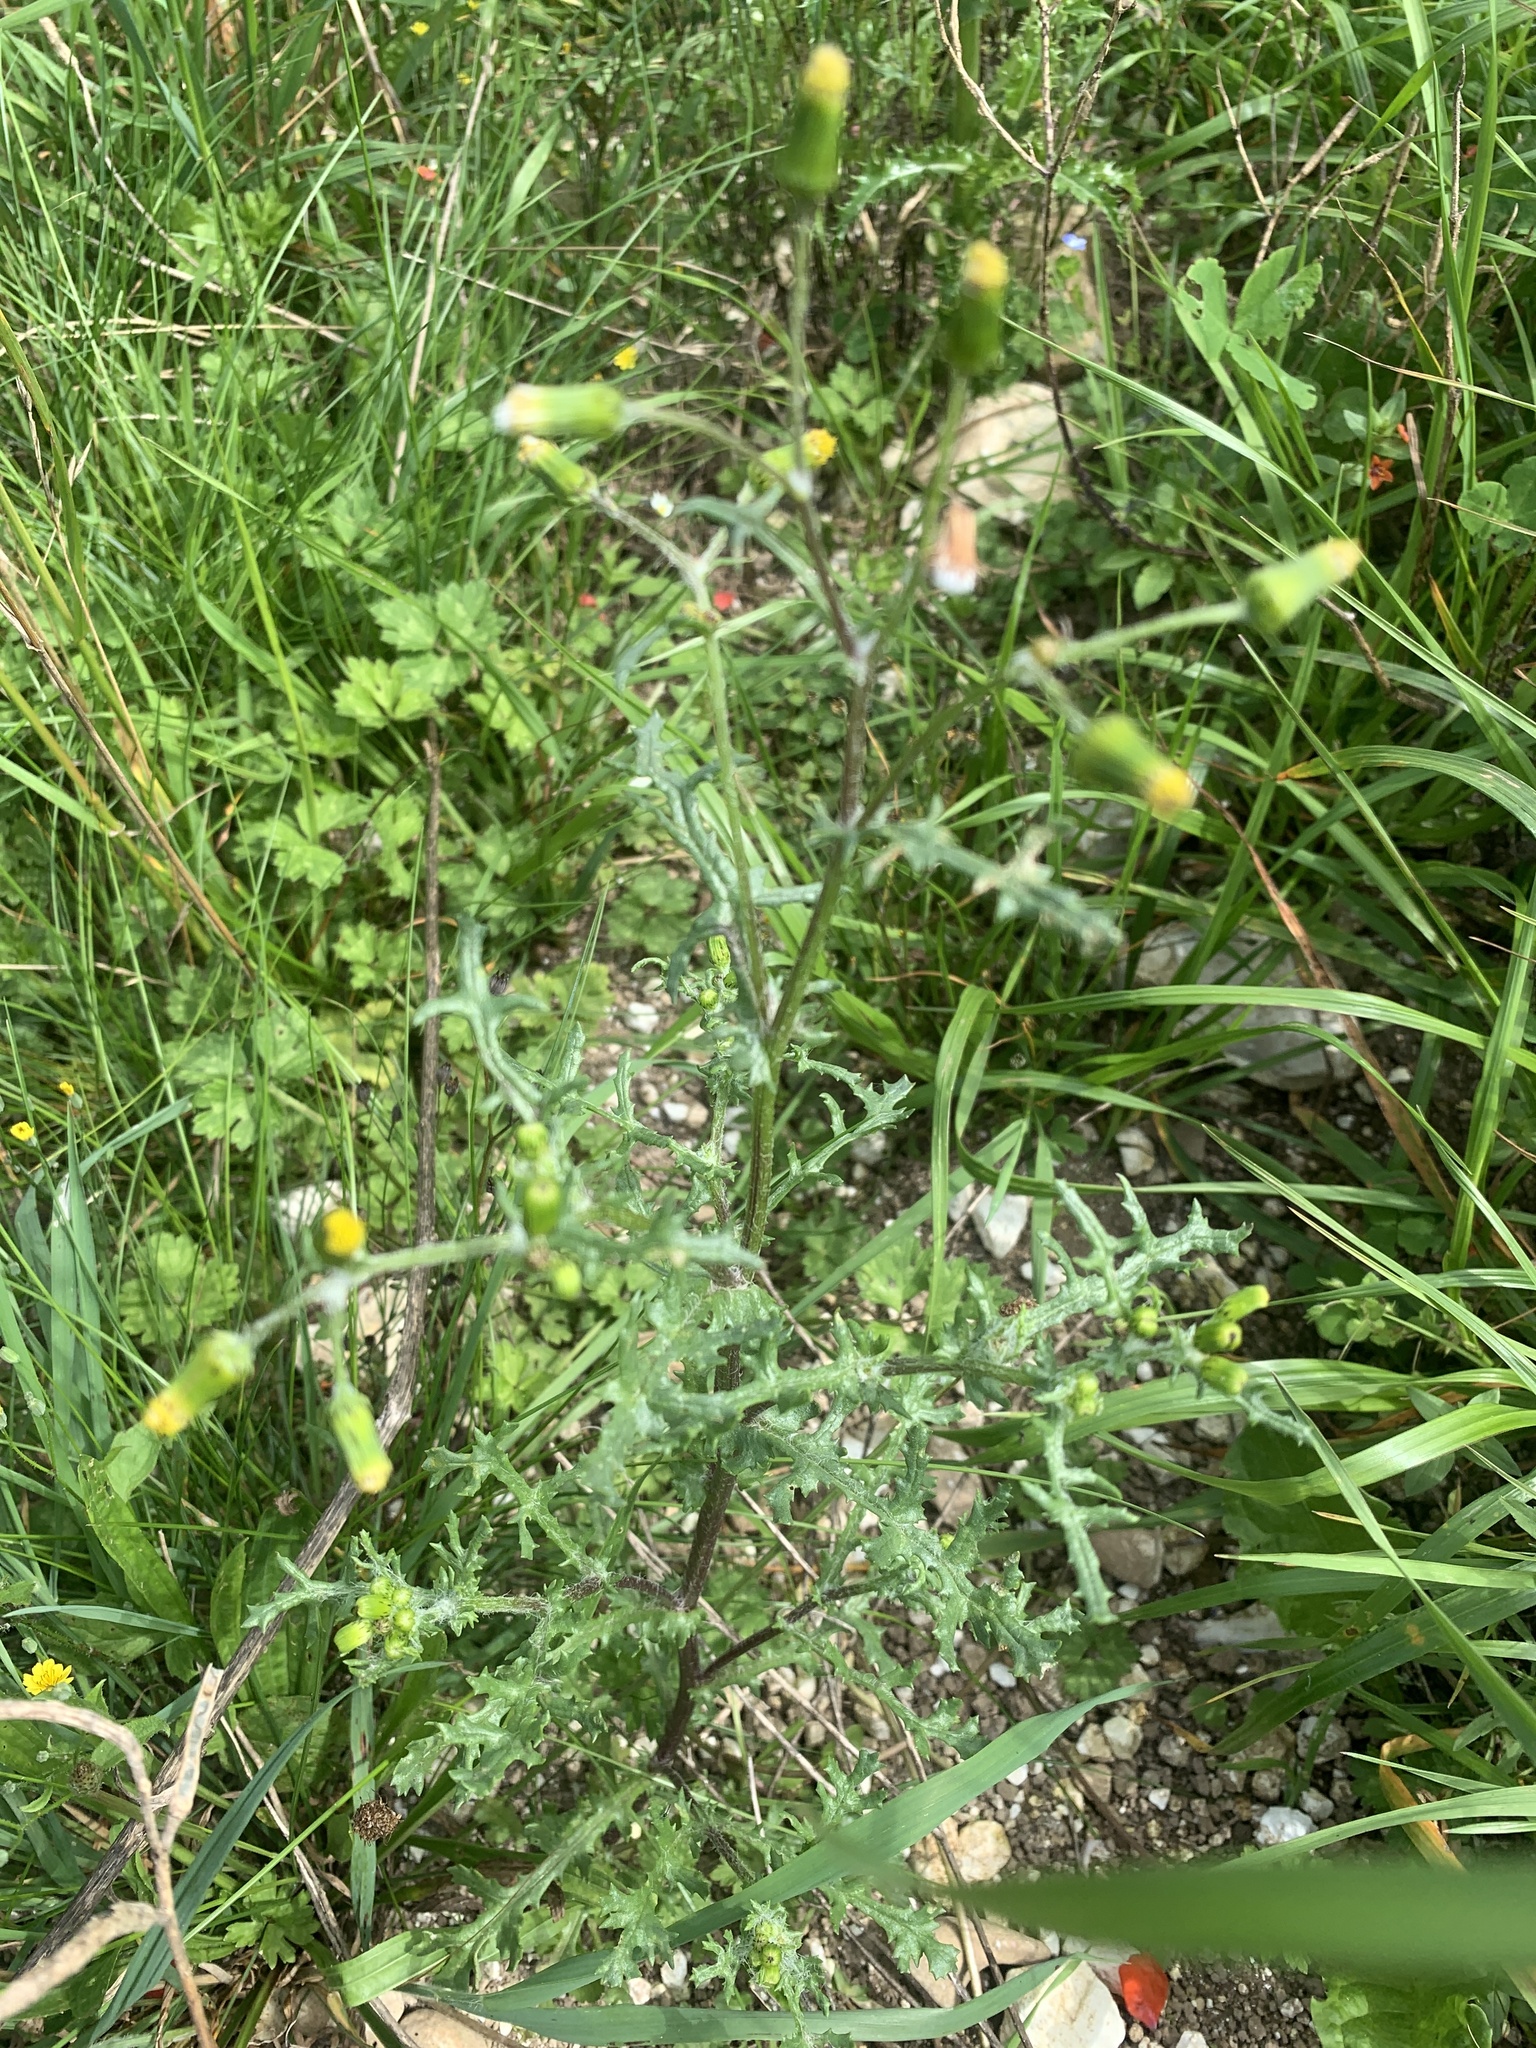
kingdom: Plantae
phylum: Tracheophyta
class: Magnoliopsida
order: Asterales
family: Asteraceae
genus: Senecio
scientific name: Senecio vulgaris
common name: Old-man-in-the-spring
